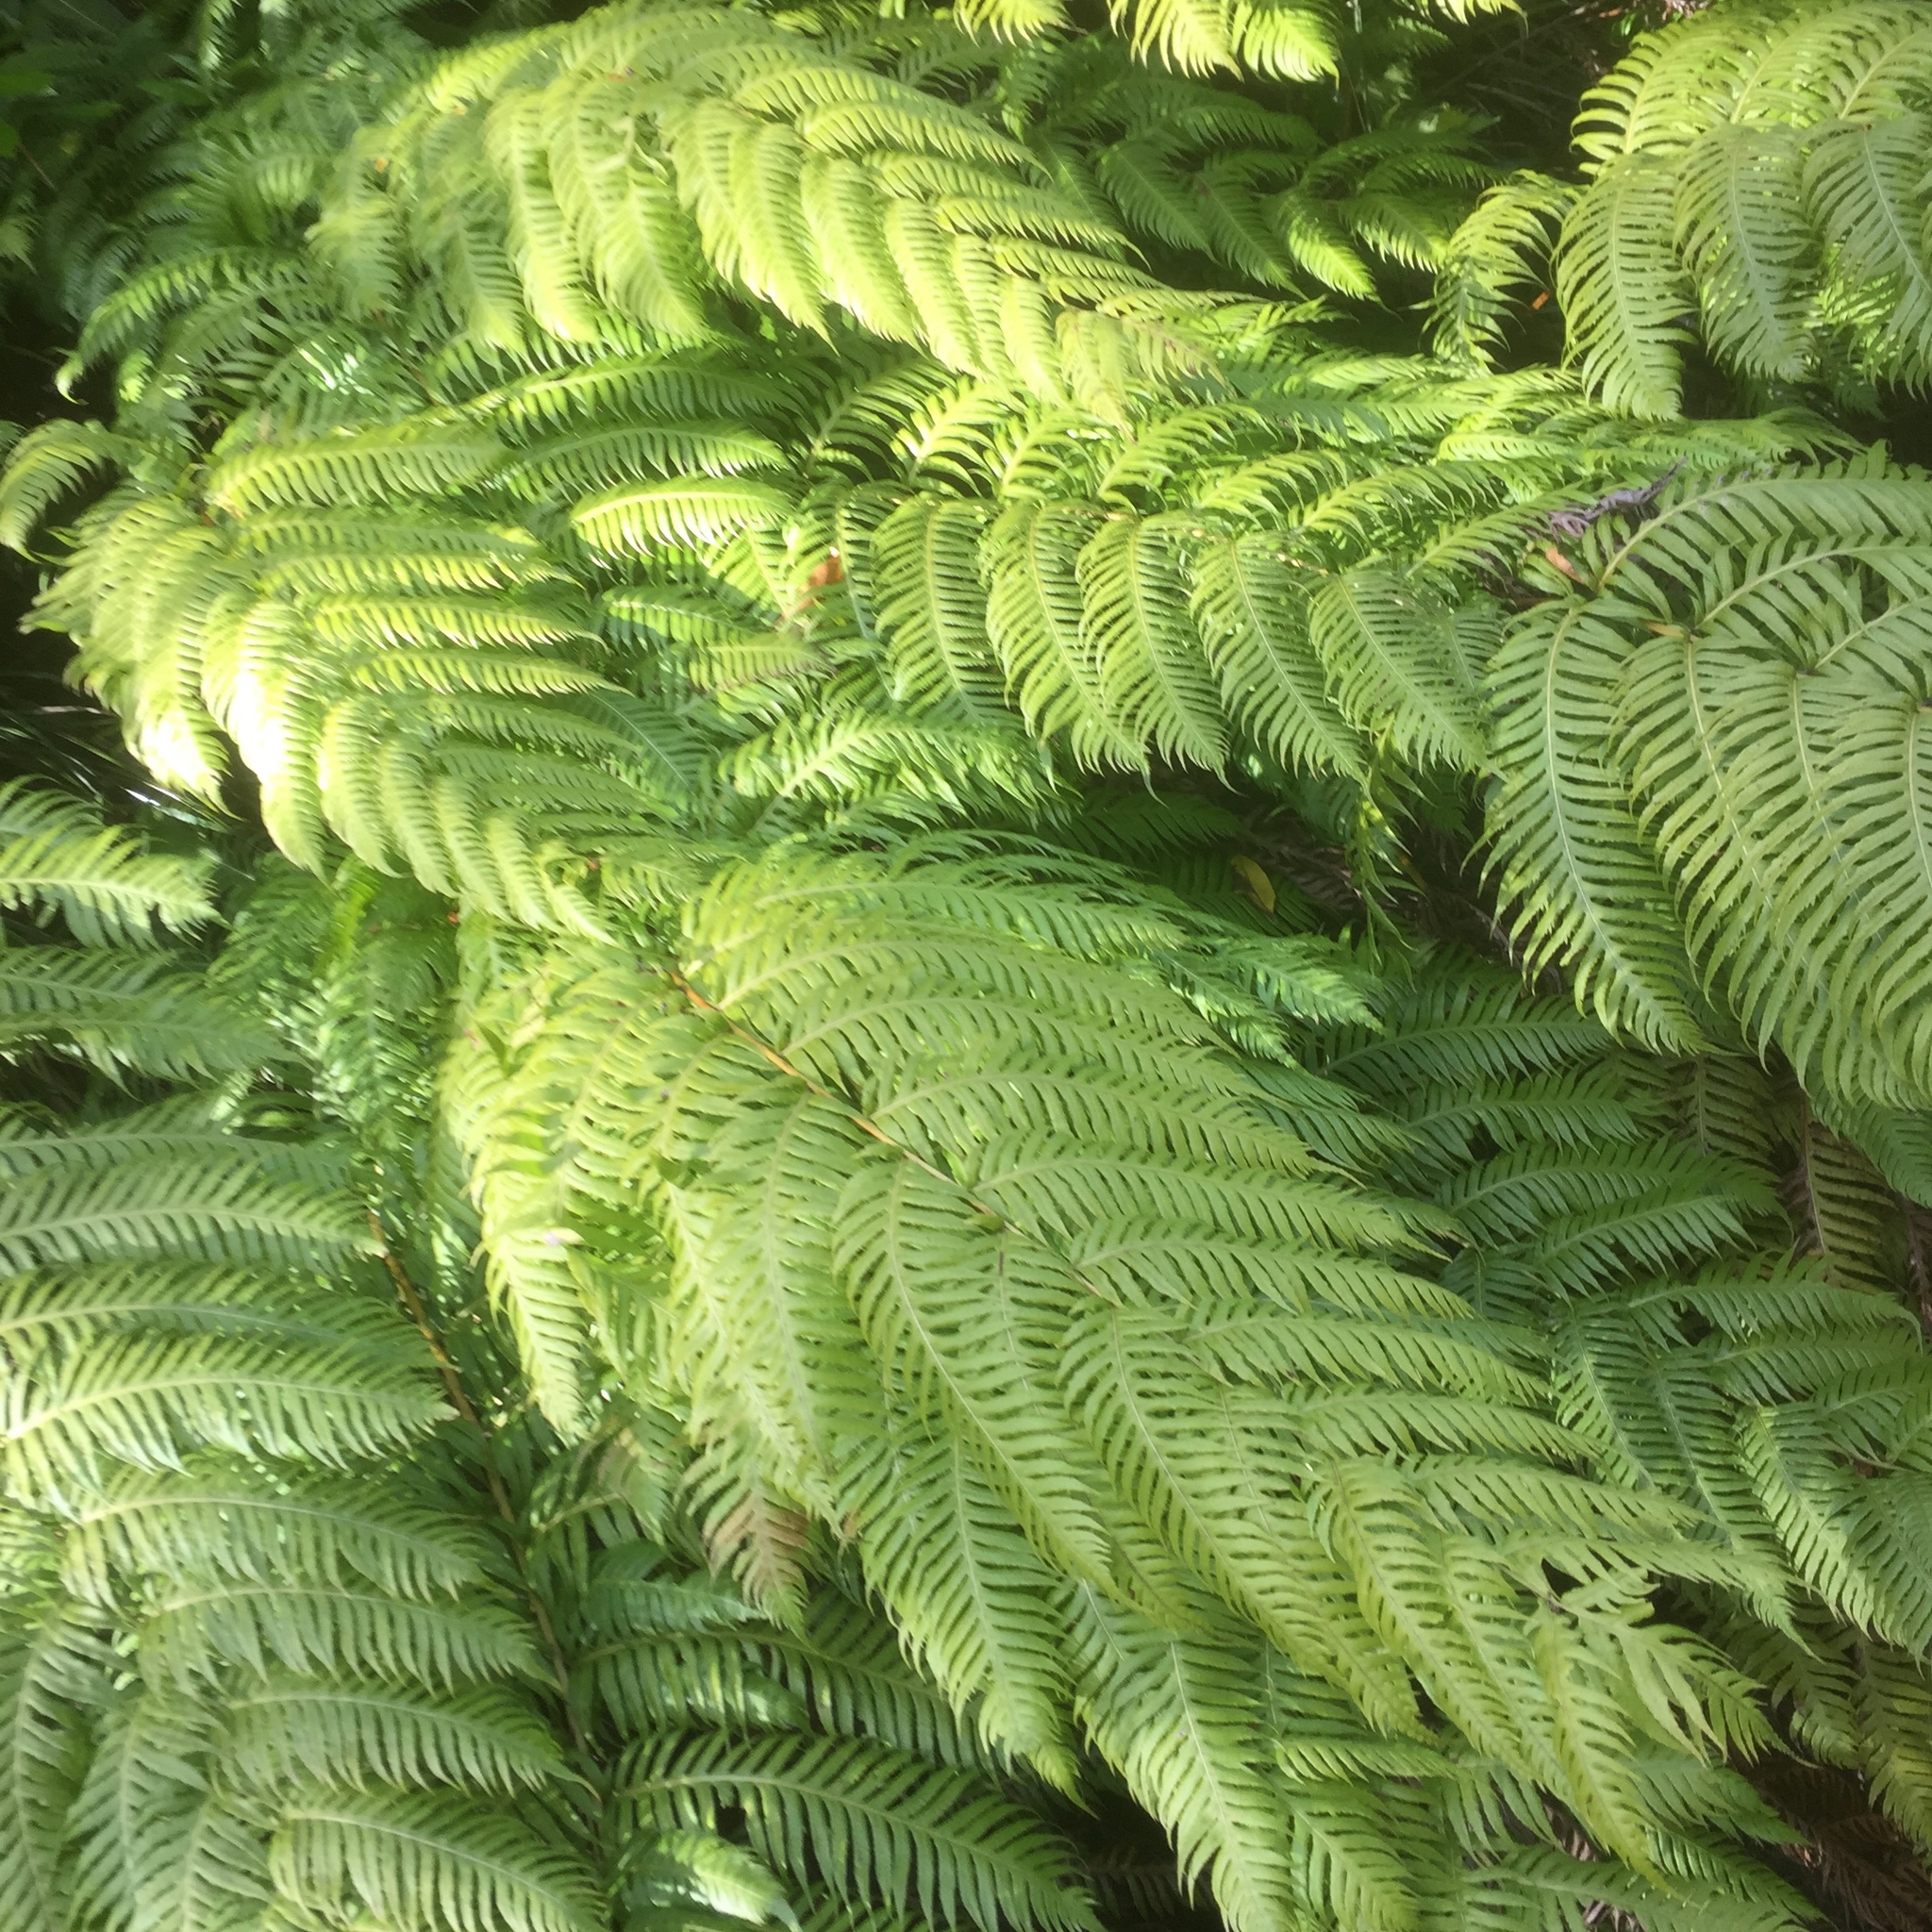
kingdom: Plantae
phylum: Tracheophyta
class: Polypodiopsida
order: Polypodiales
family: Blechnaceae
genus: Woodwardia
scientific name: Woodwardia radicans
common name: Rooting chainfern
